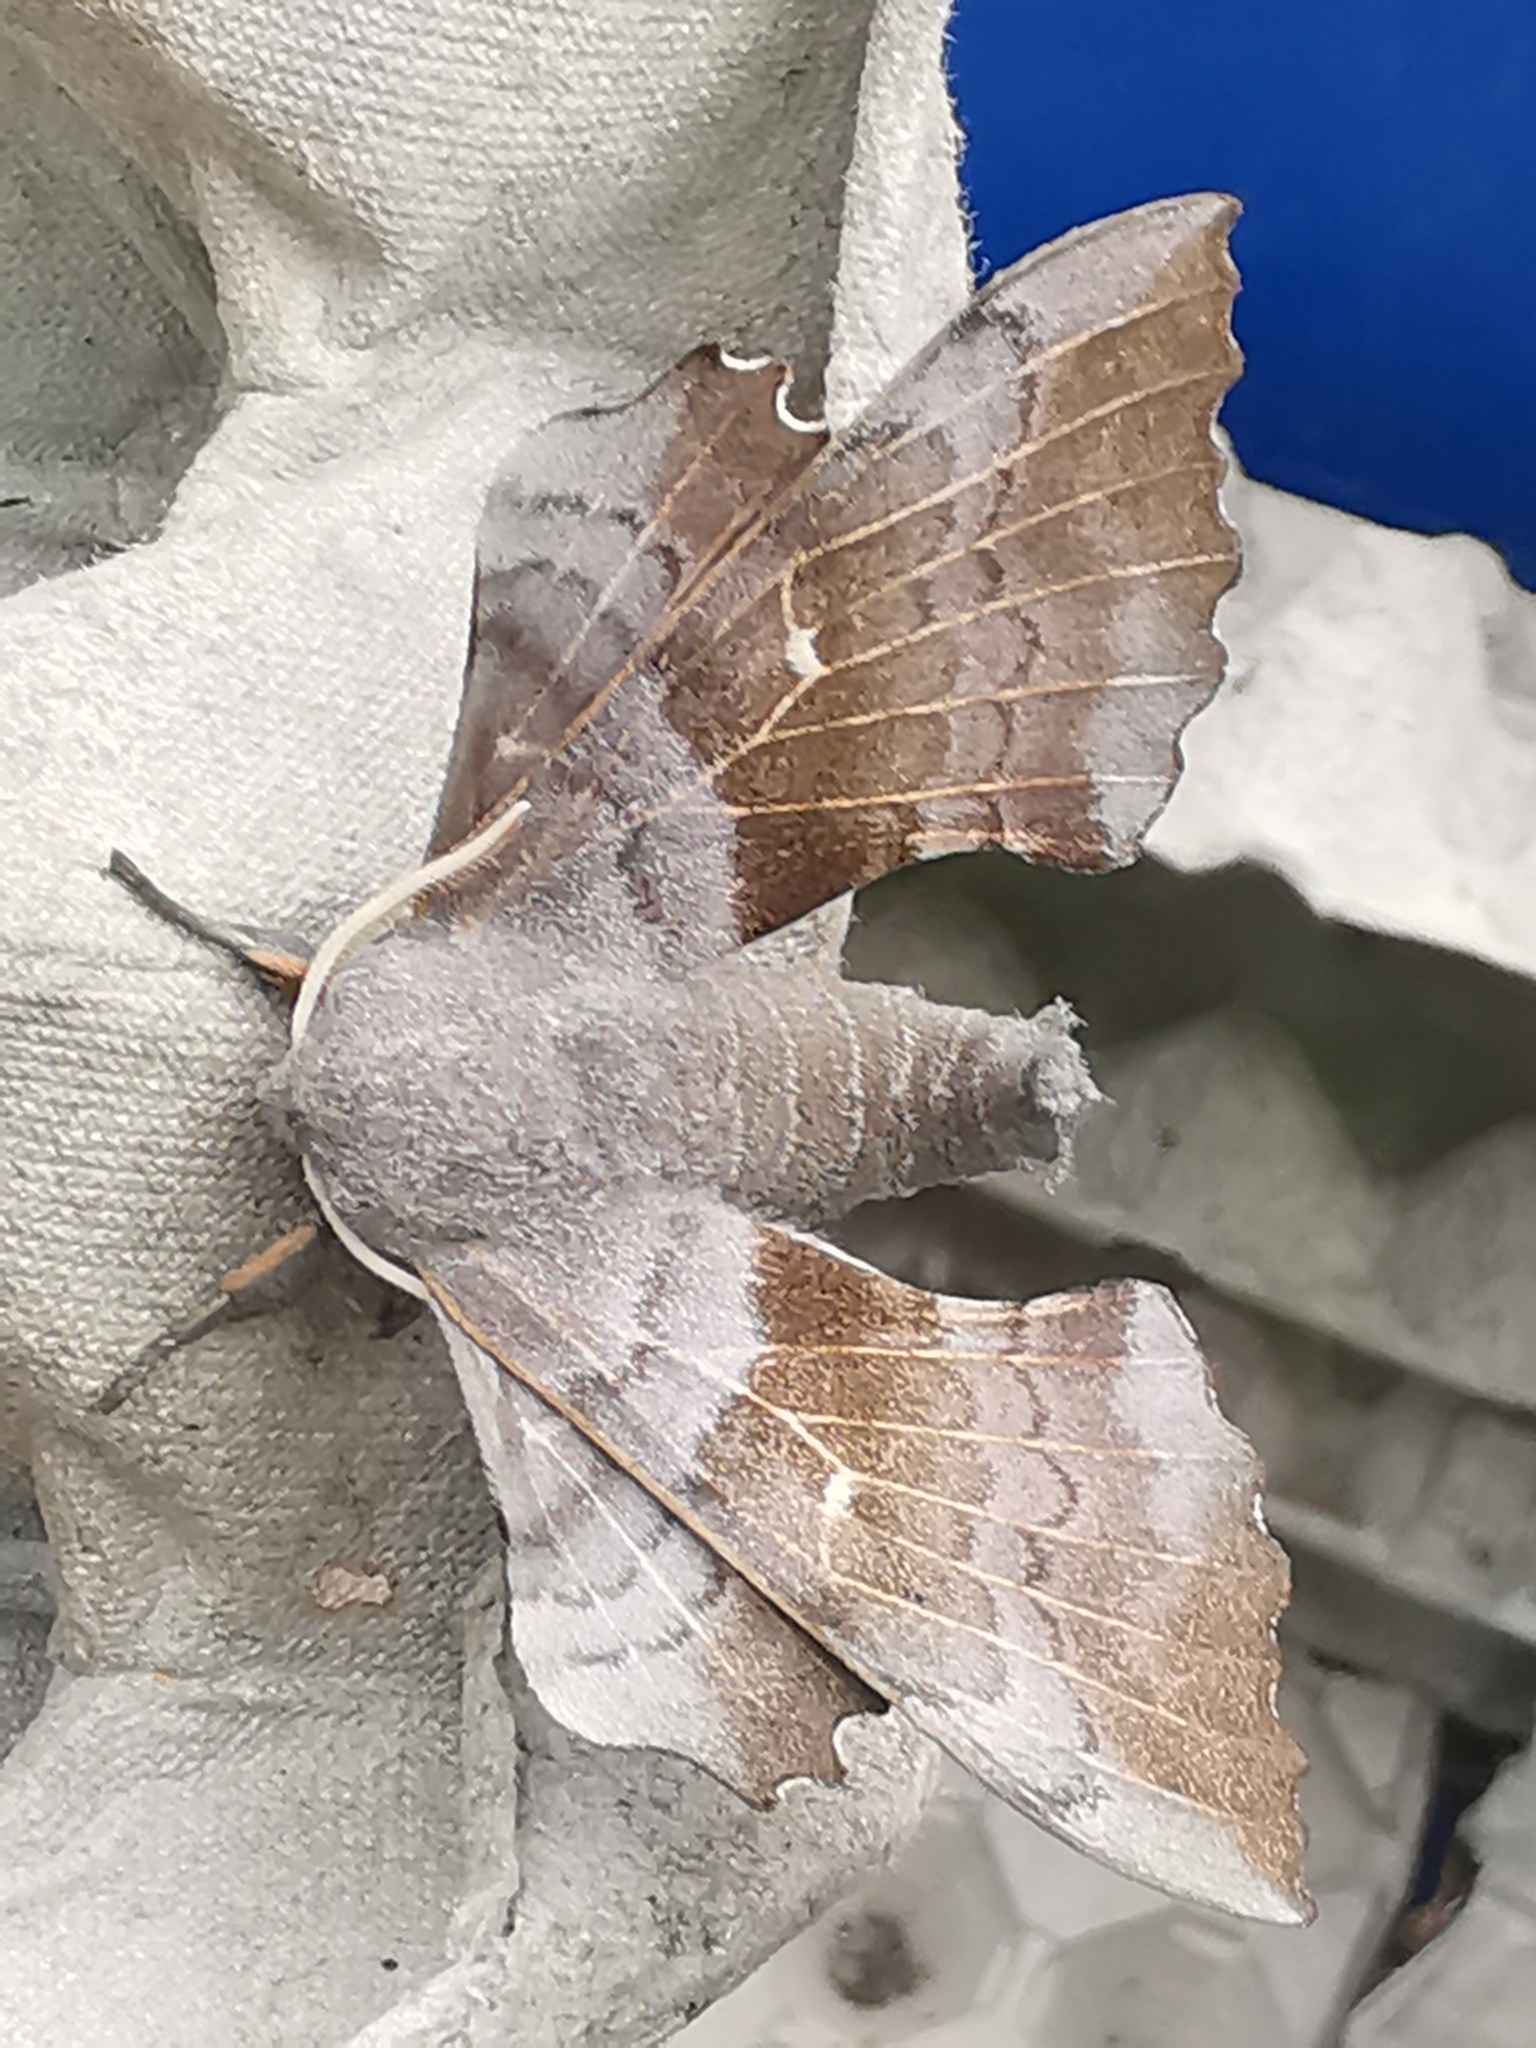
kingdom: Animalia
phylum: Arthropoda
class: Insecta
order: Lepidoptera
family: Sphingidae
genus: Laothoe
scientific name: Laothoe populi
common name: Poplar hawk-moth
